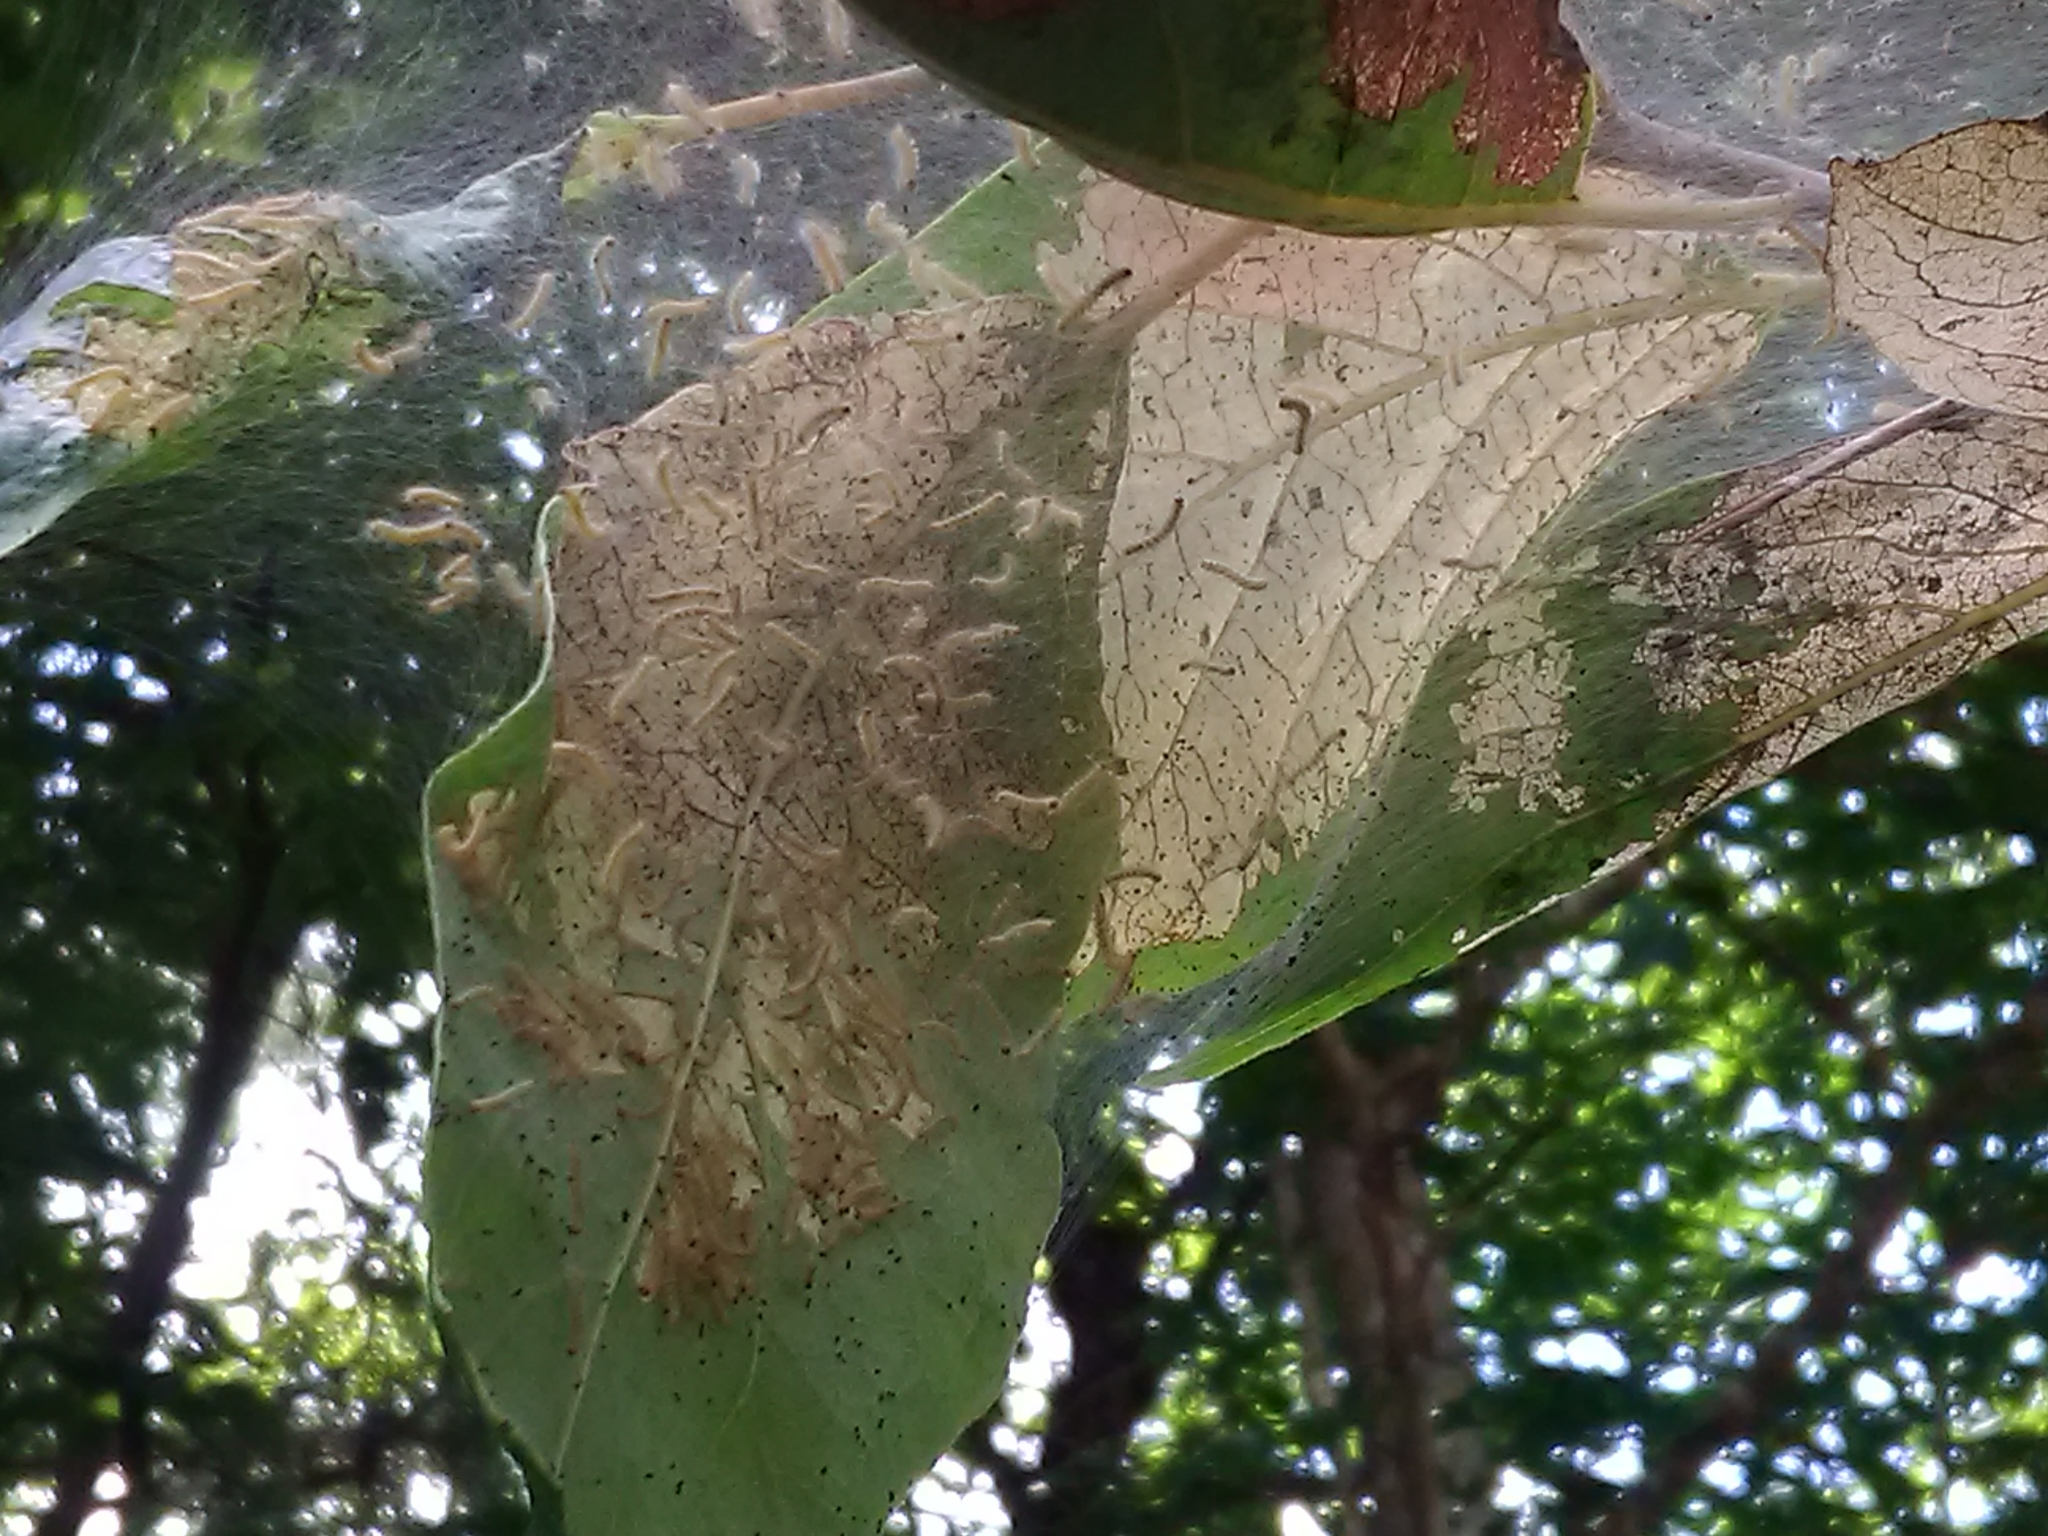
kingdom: Animalia
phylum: Arthropoda
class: Insecta
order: Lepidoptera
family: Erebidae
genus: Hyphantria
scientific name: Hyphantria cunea
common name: American white moth
